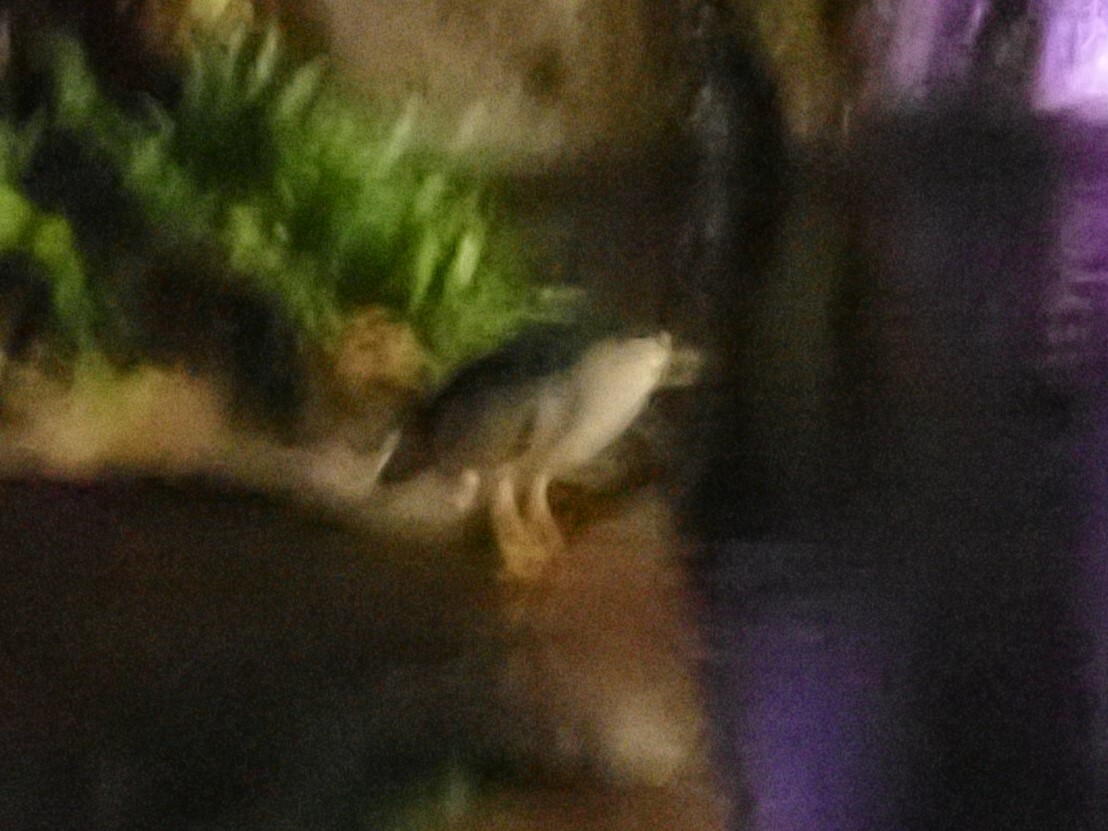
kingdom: Animalia
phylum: Chordata
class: Aves
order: Pelecaniformes
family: Ardeidae
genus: Nycticorax
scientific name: Nycticorax nycticorax
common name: Black-crowned night heron
